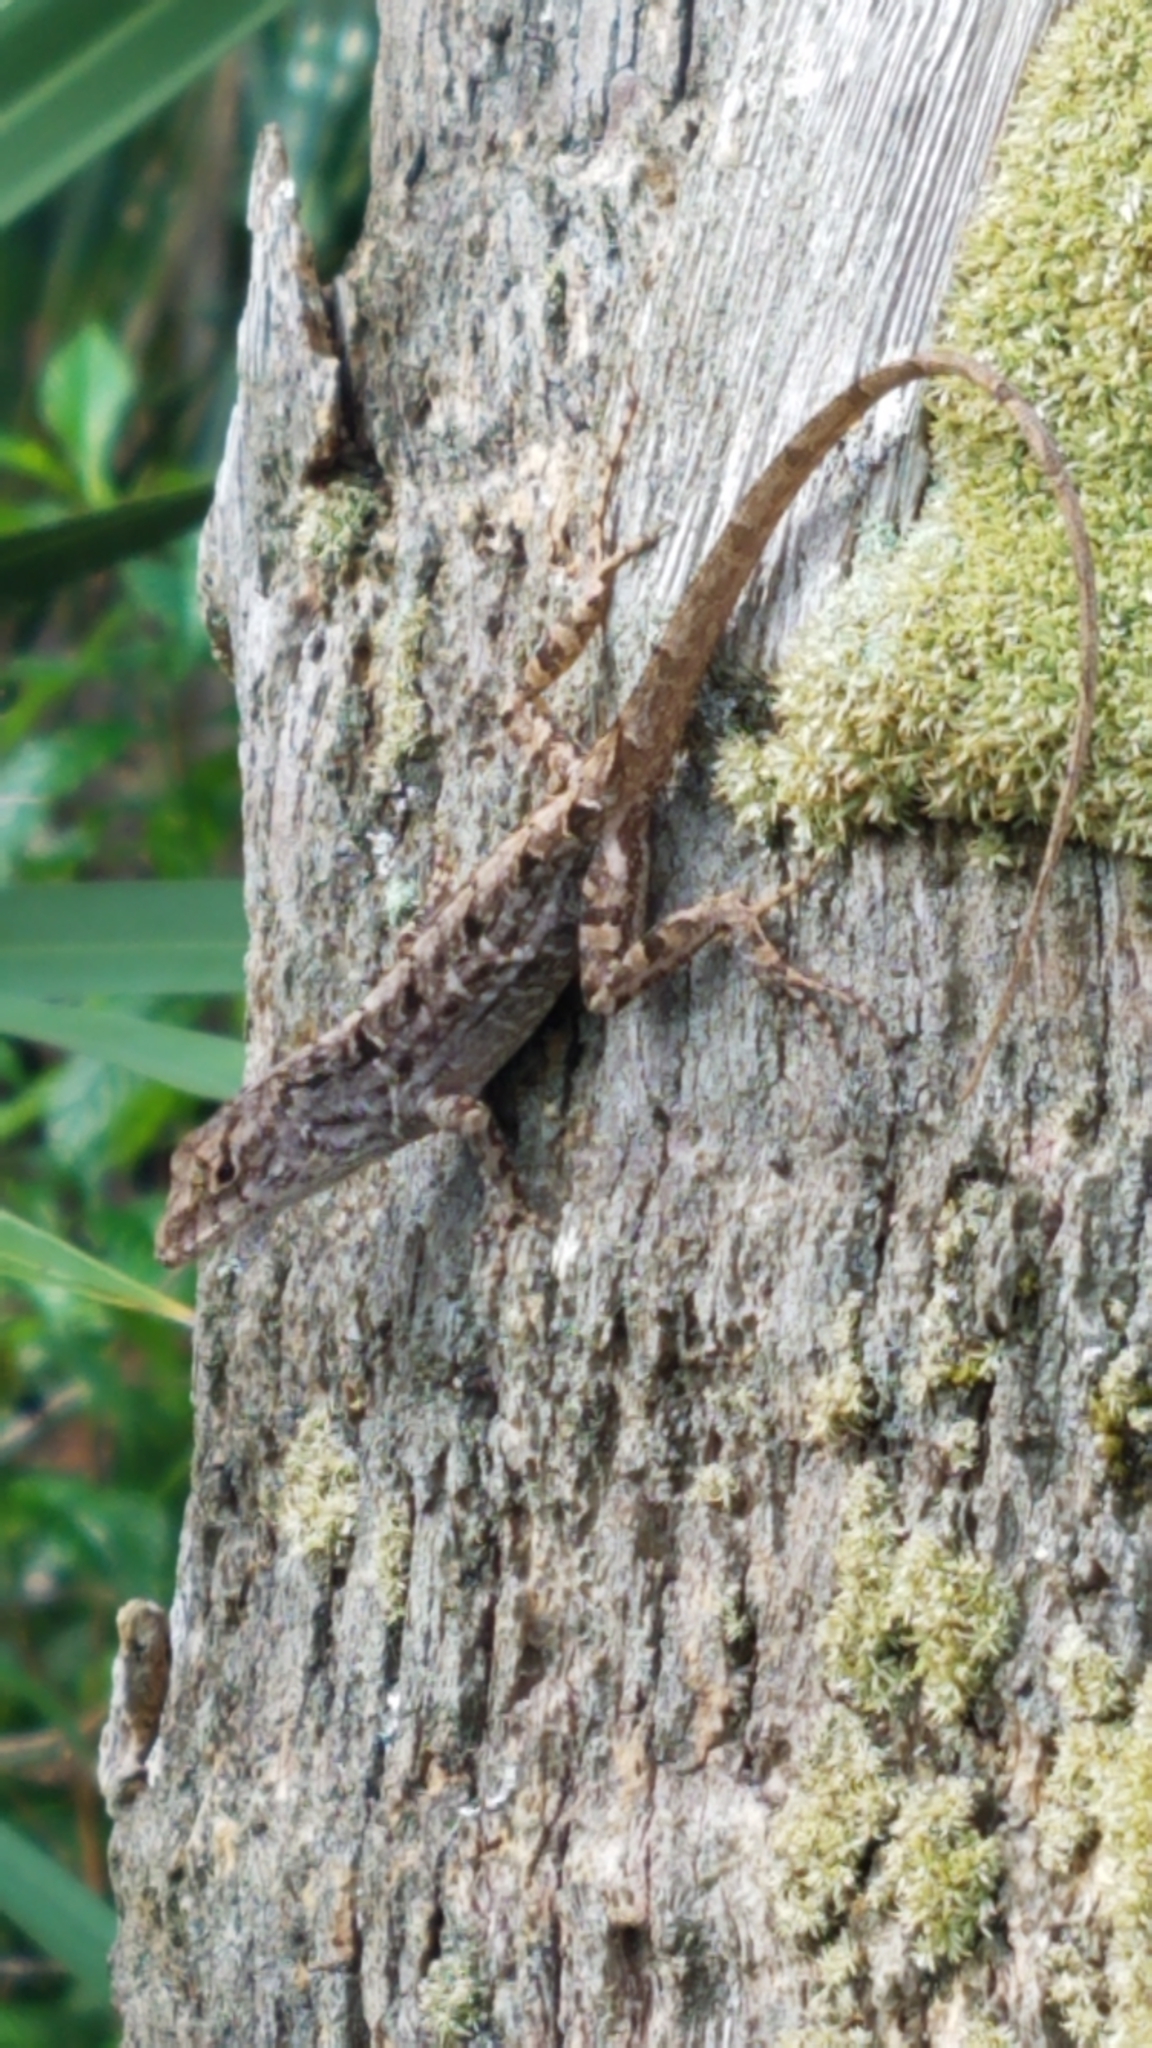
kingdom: Animalia
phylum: Chordata
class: Squamata
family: Dactyloidae
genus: Anolis
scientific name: Anolis sagrei
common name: Brown anole
